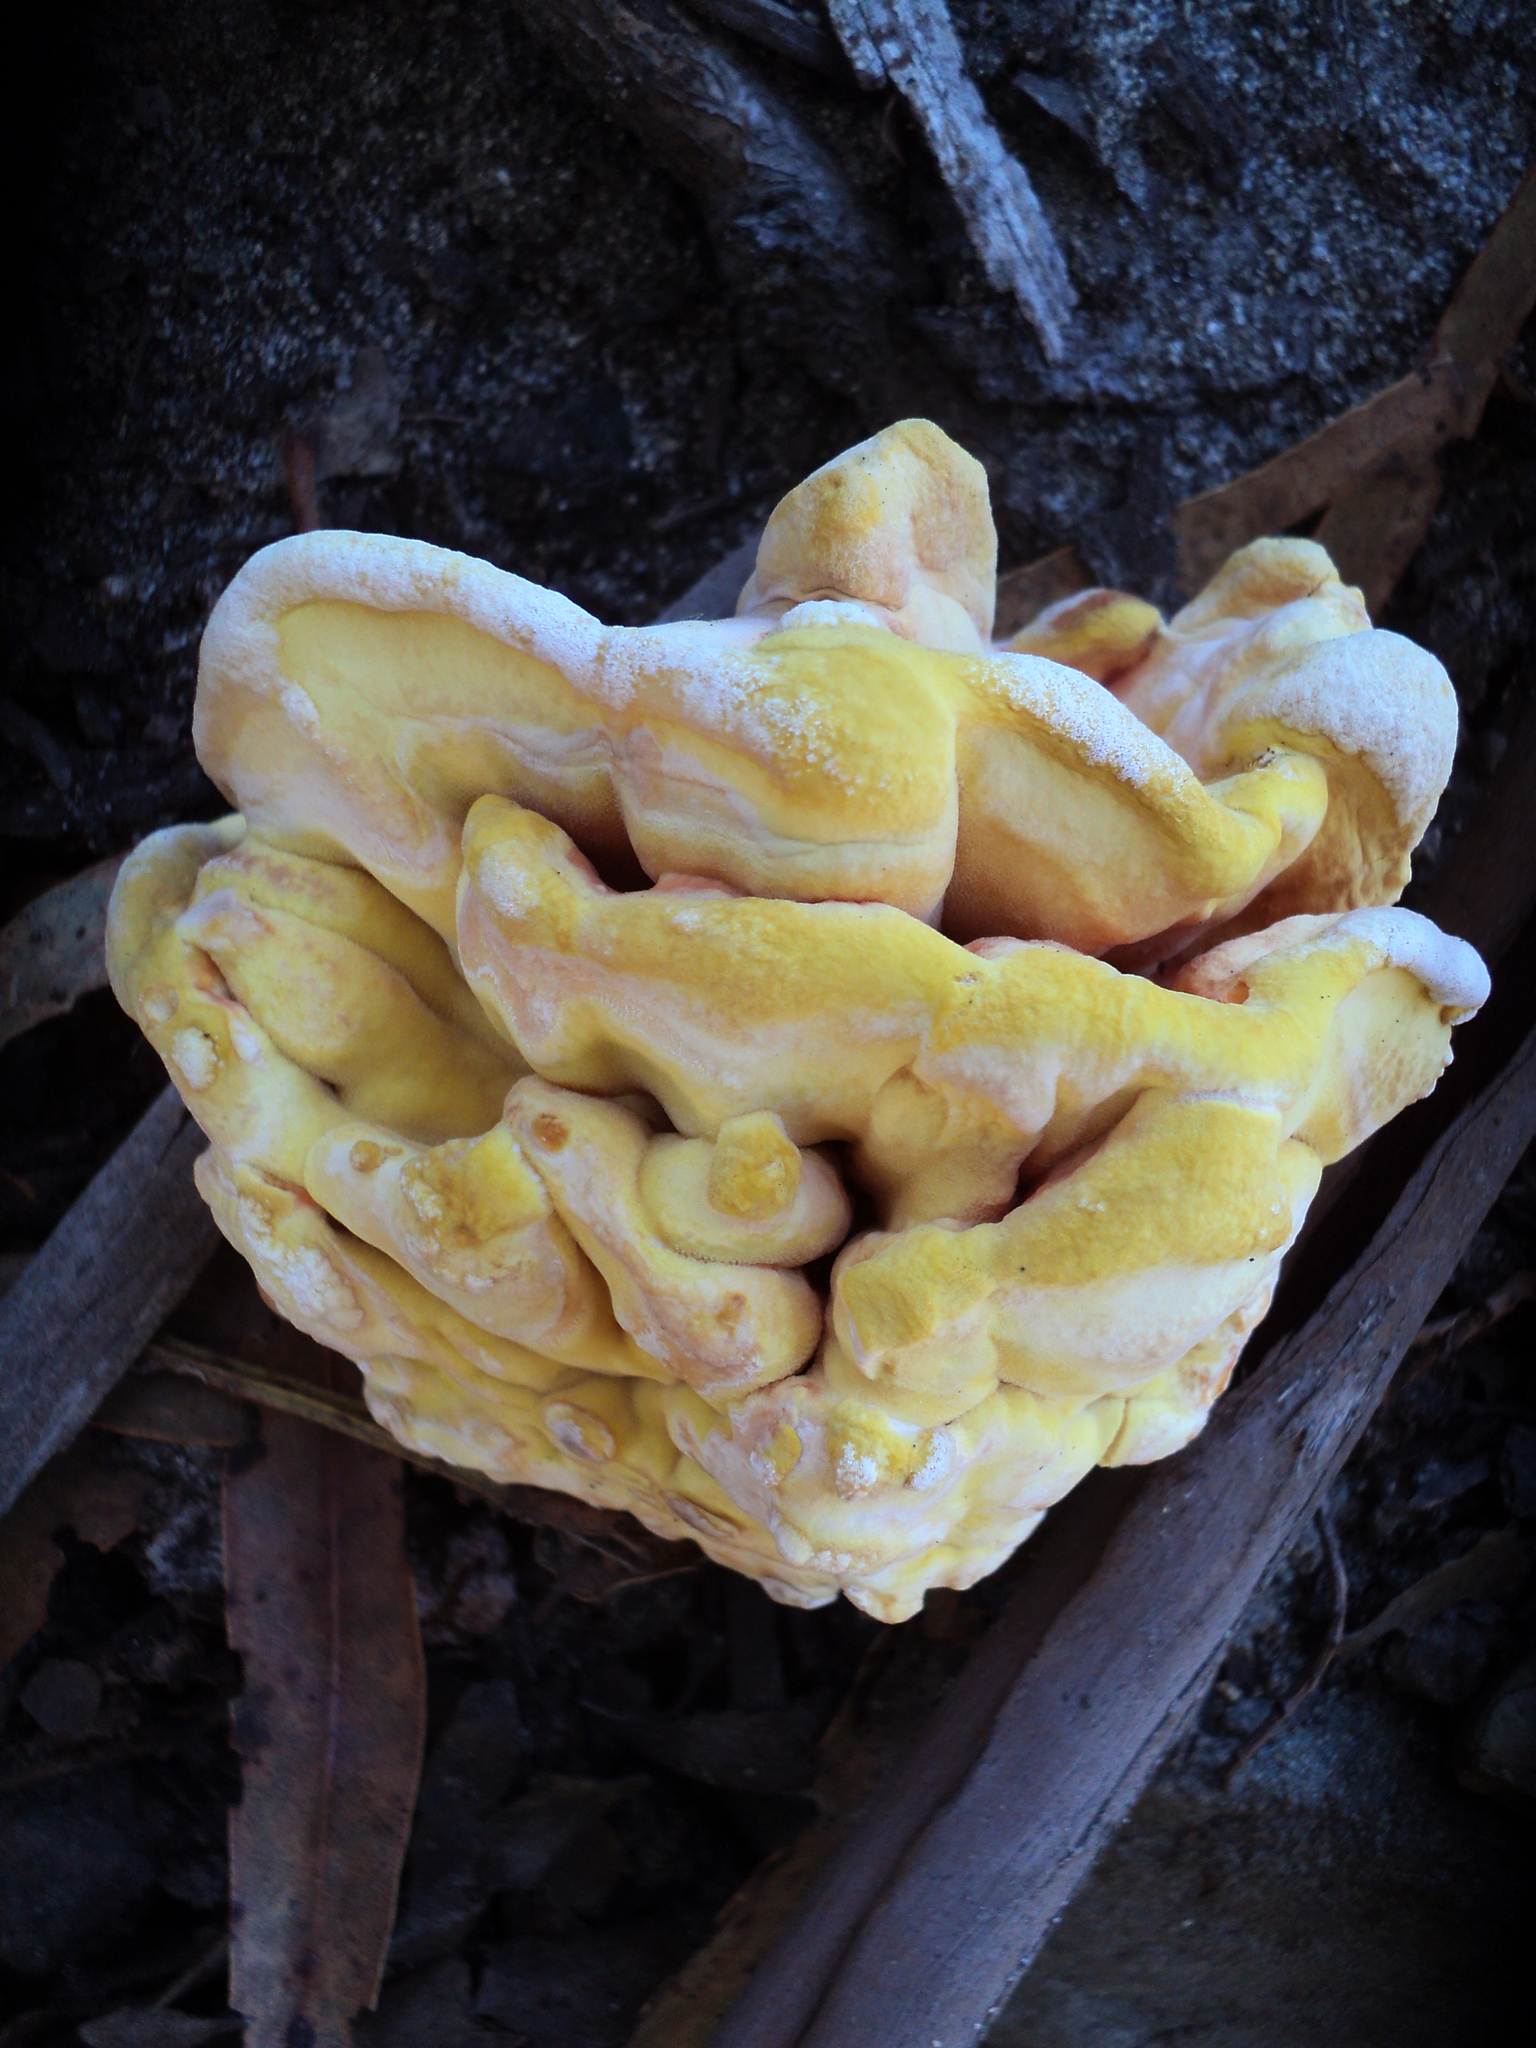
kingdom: Fungi
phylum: Basidiomycota
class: Agaricomycetes
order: Polyporales
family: Laetiporaceae
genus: Laetiporus
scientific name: Laetiporus gilbertsonii
